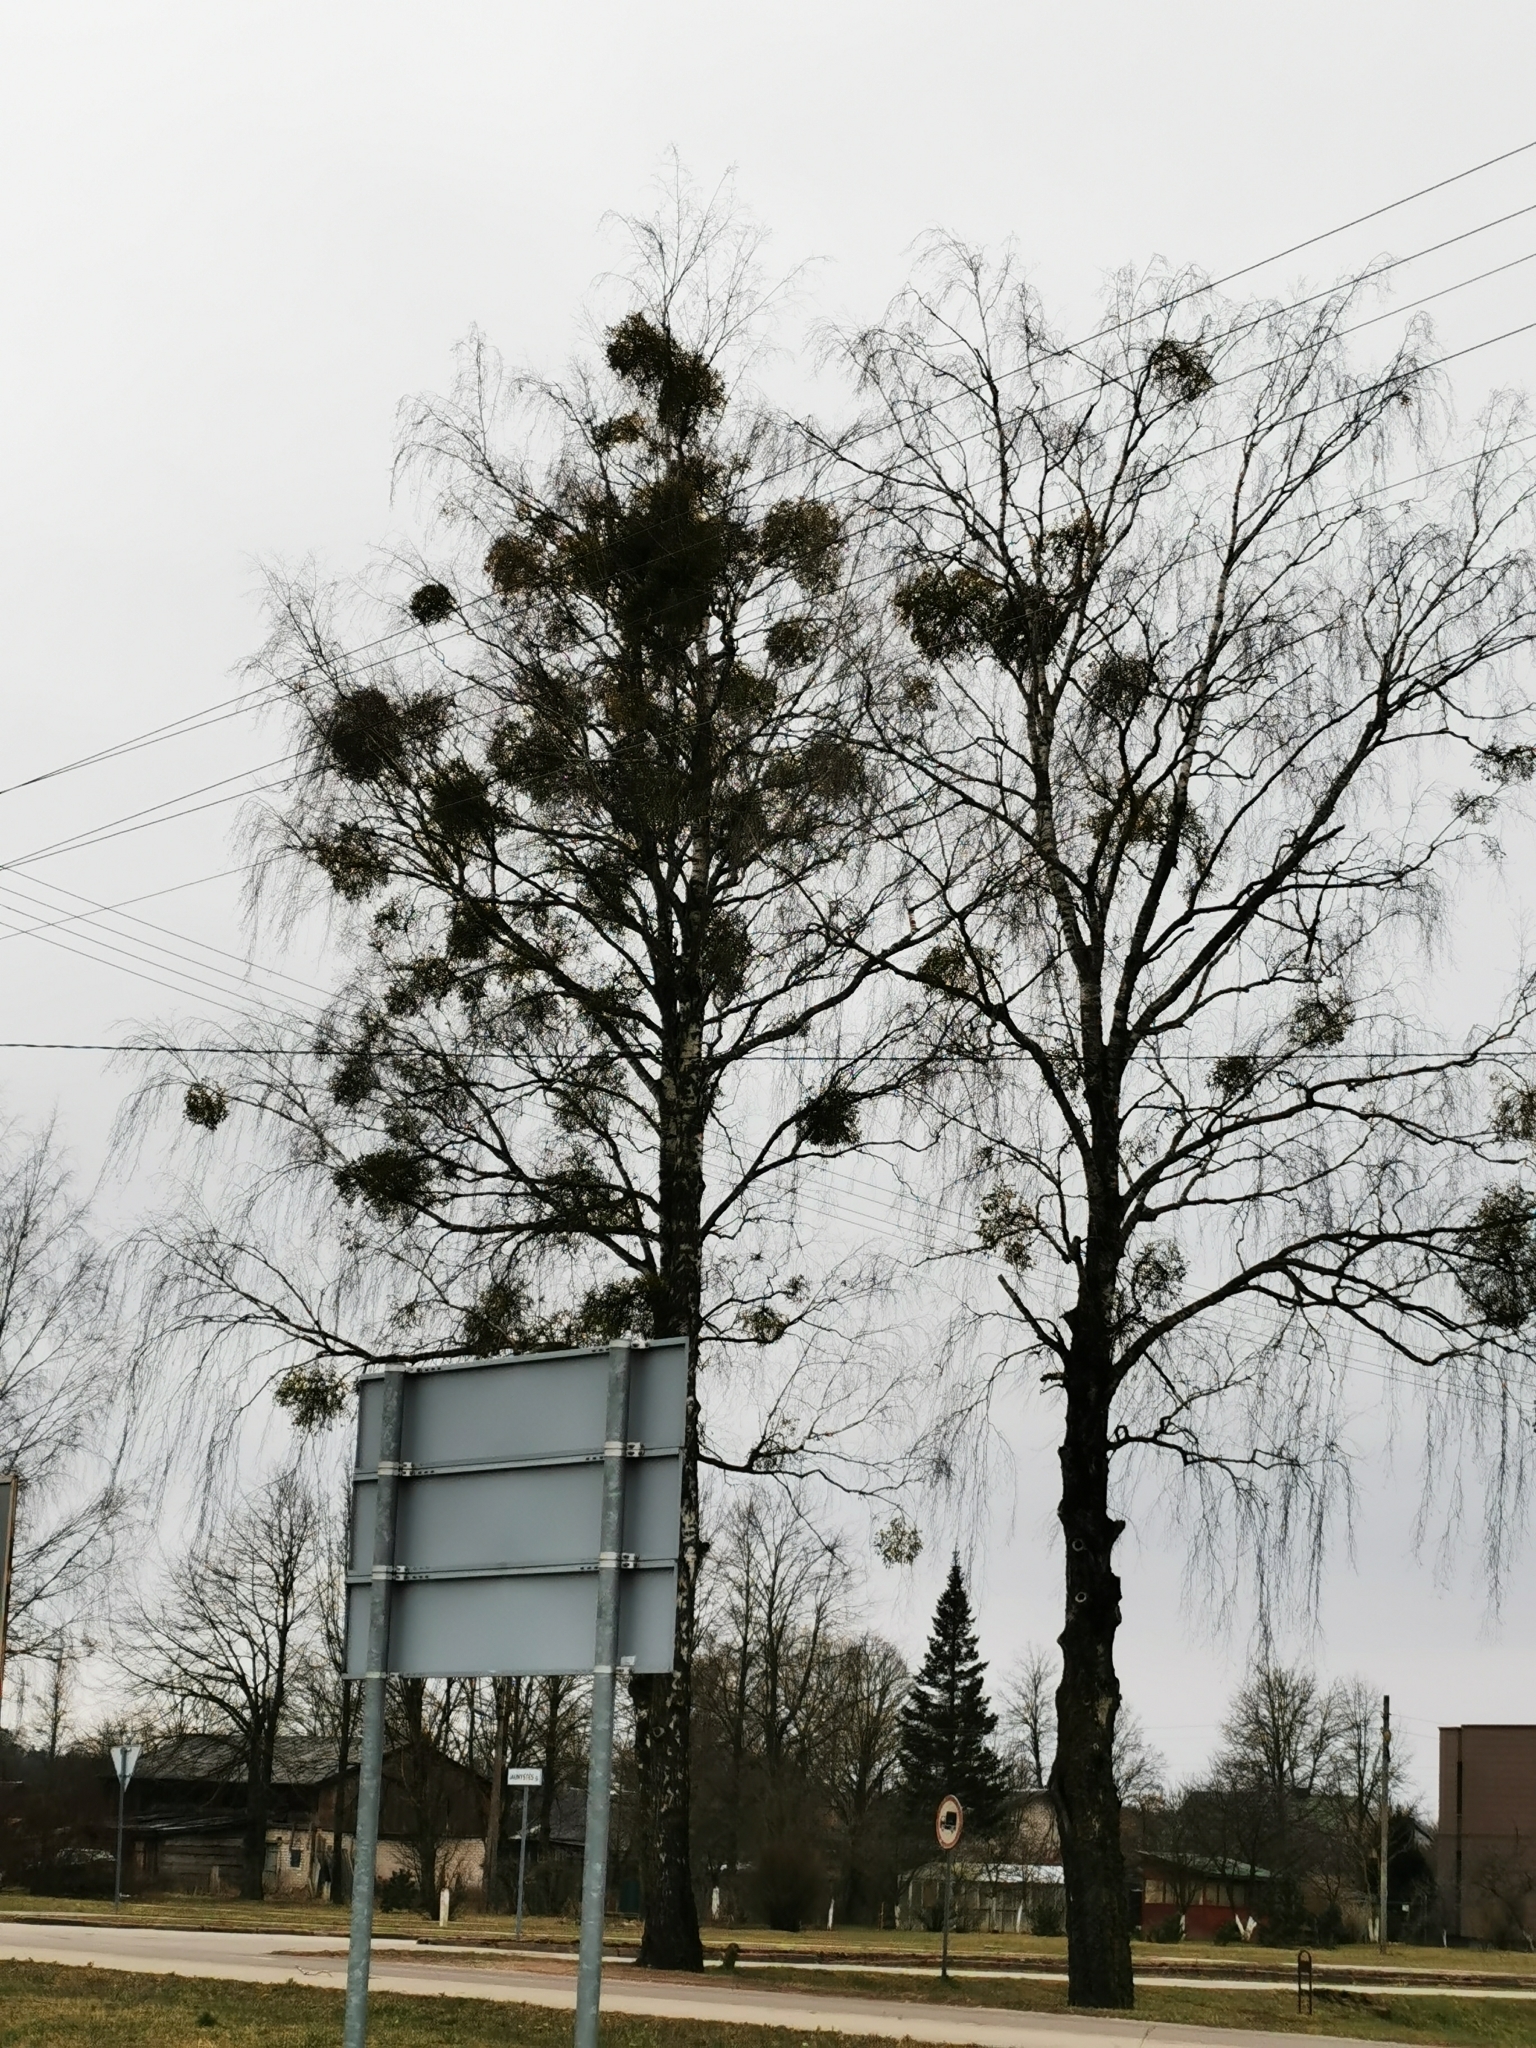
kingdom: Plantae
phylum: Tracheophyta
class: Magnoliopsida
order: Santalales
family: Viscaceae
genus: Viscum
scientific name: Viscum album
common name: Mistletoe
